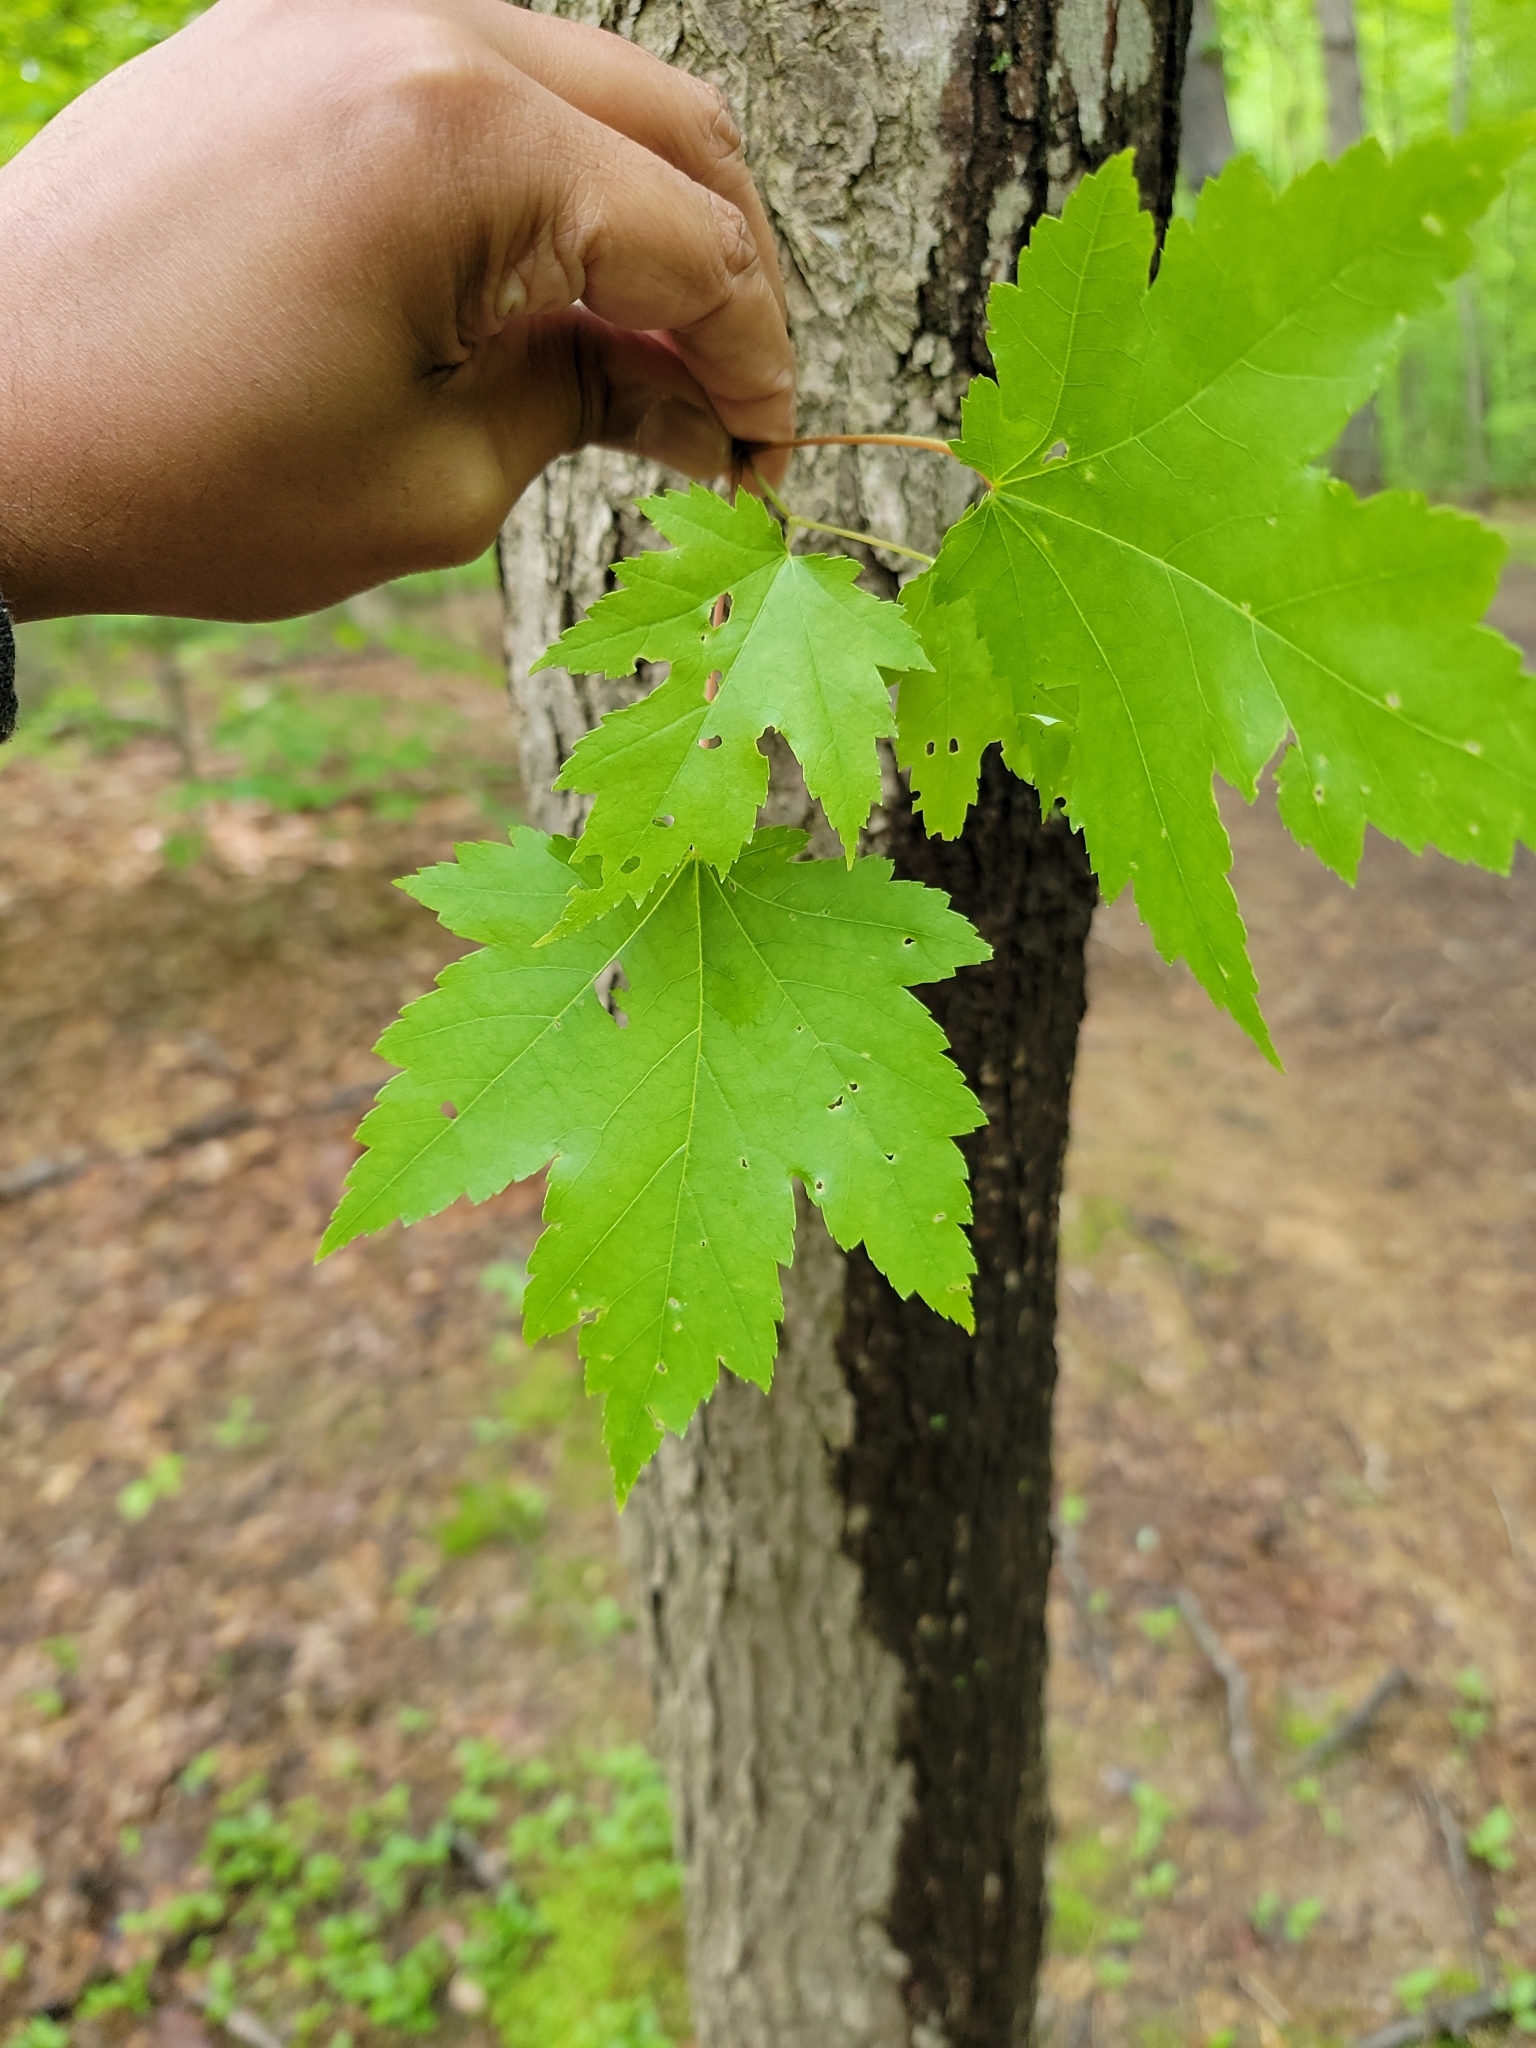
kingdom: Plantae
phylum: Tracheophyta
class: Magnoliopsida
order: Sapindales
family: Sapindaceae
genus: Acer
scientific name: Acer rubrum
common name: Red maple
